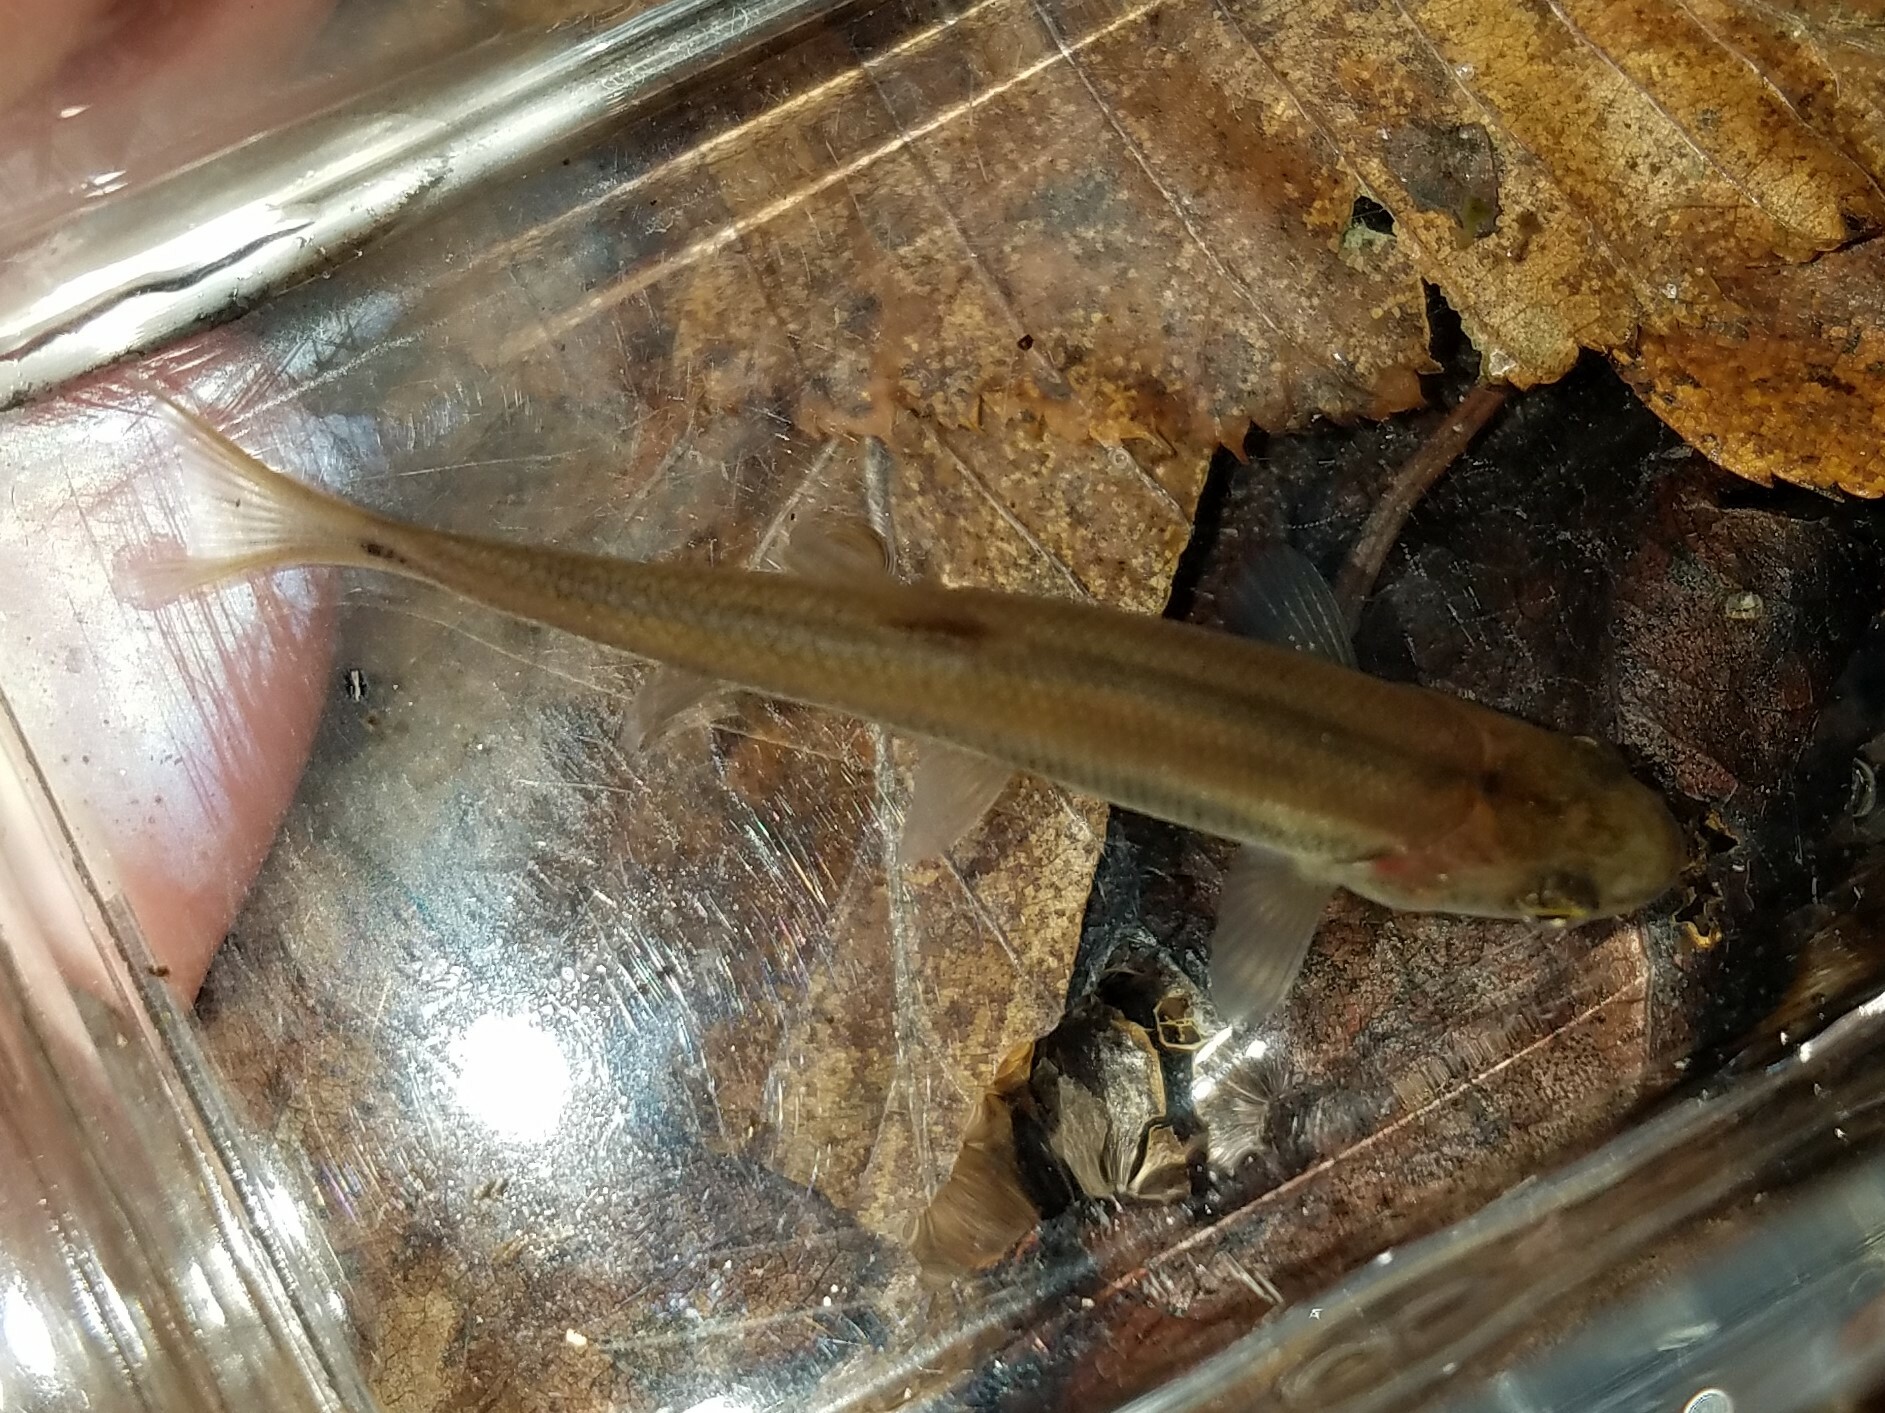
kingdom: Animalia
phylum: Chordata
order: Cypriniformes
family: Cyprinidae
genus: Semotilus
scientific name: Semotilus atromaculatus
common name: Creek chub
